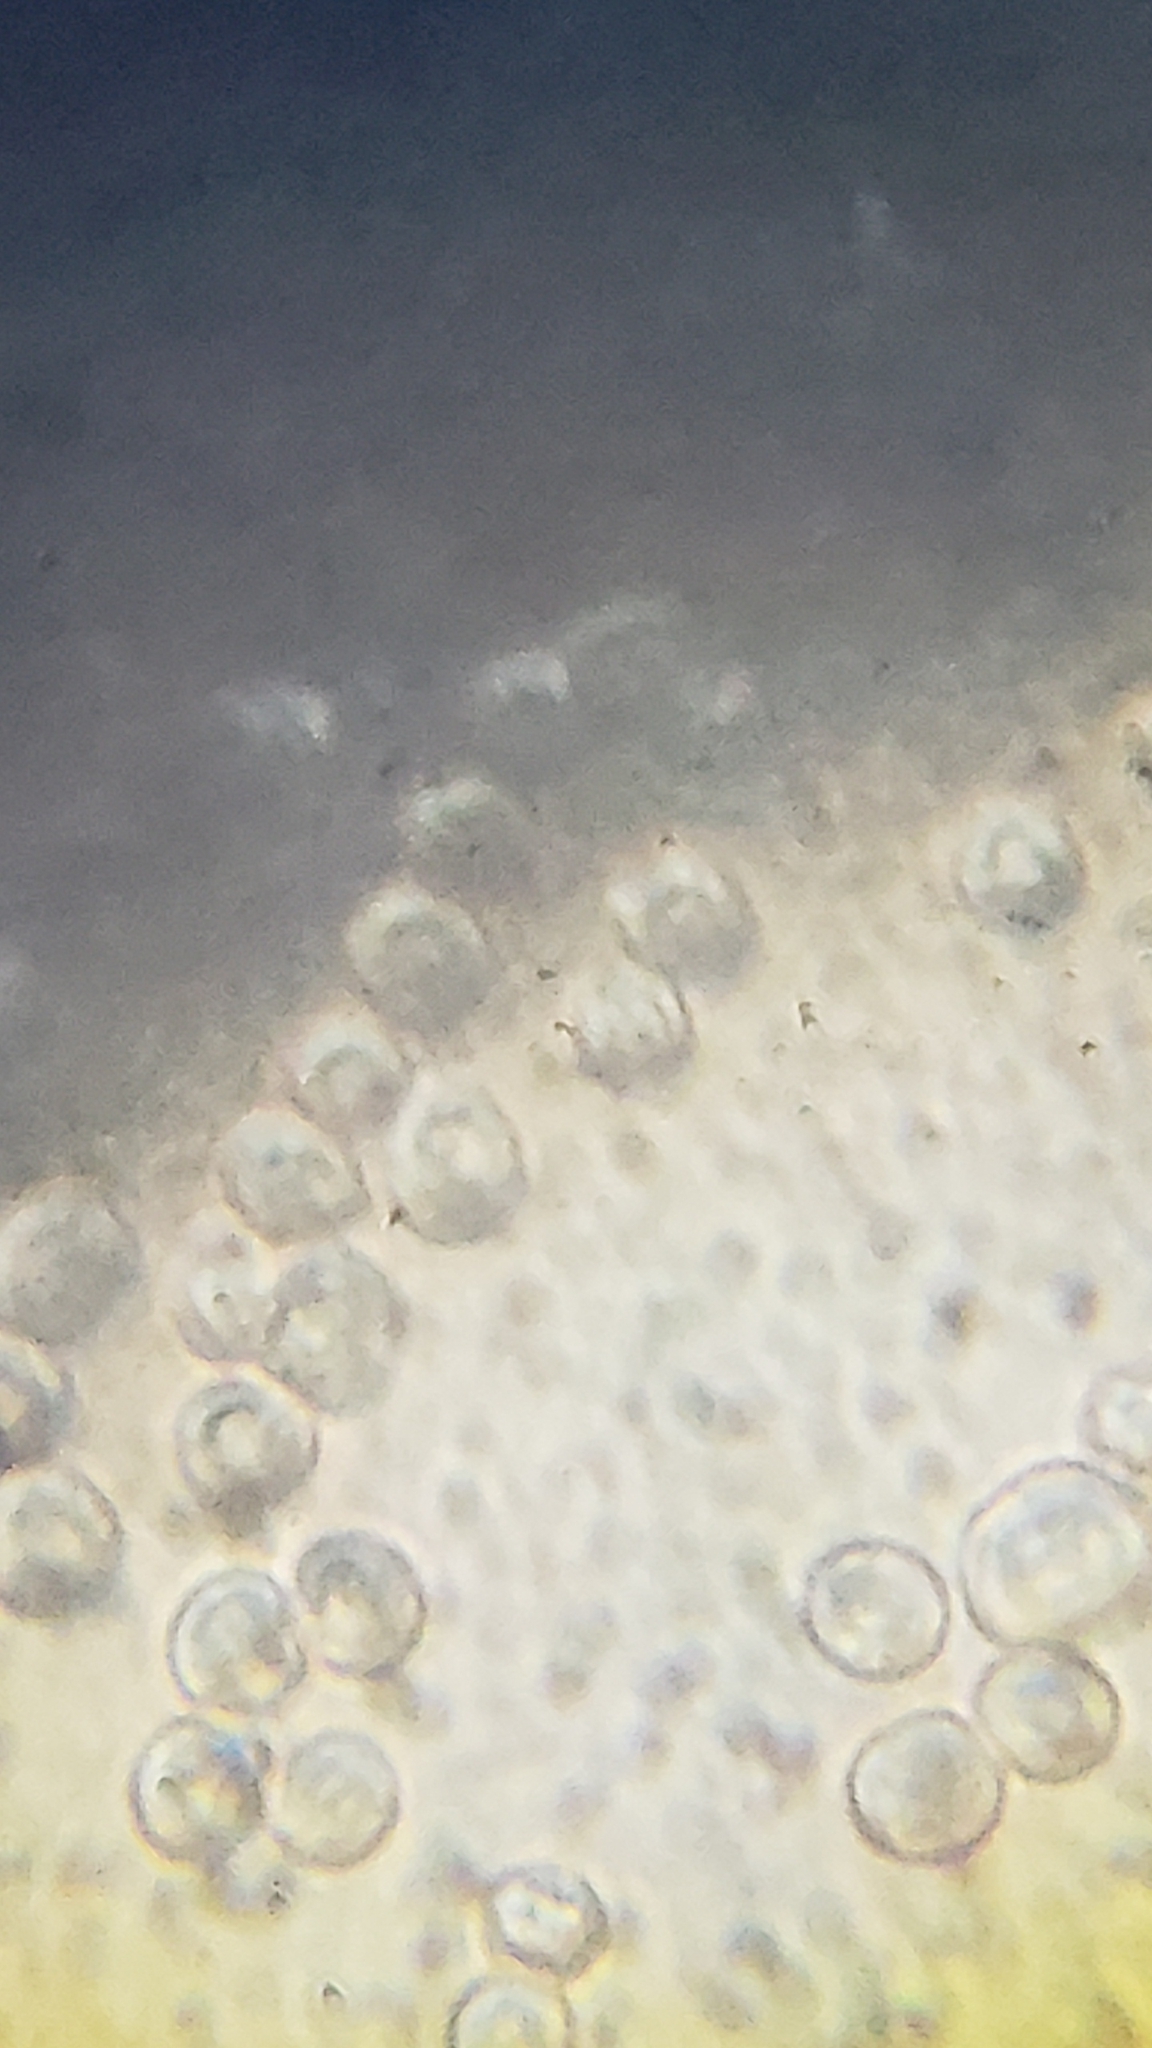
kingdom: Fungi
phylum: Basidiomycota
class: Agaricomycetes
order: Agaricales
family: Radulomycetaceae
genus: Radulomyces
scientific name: Radulomyces copelandii
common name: Asian beauty
